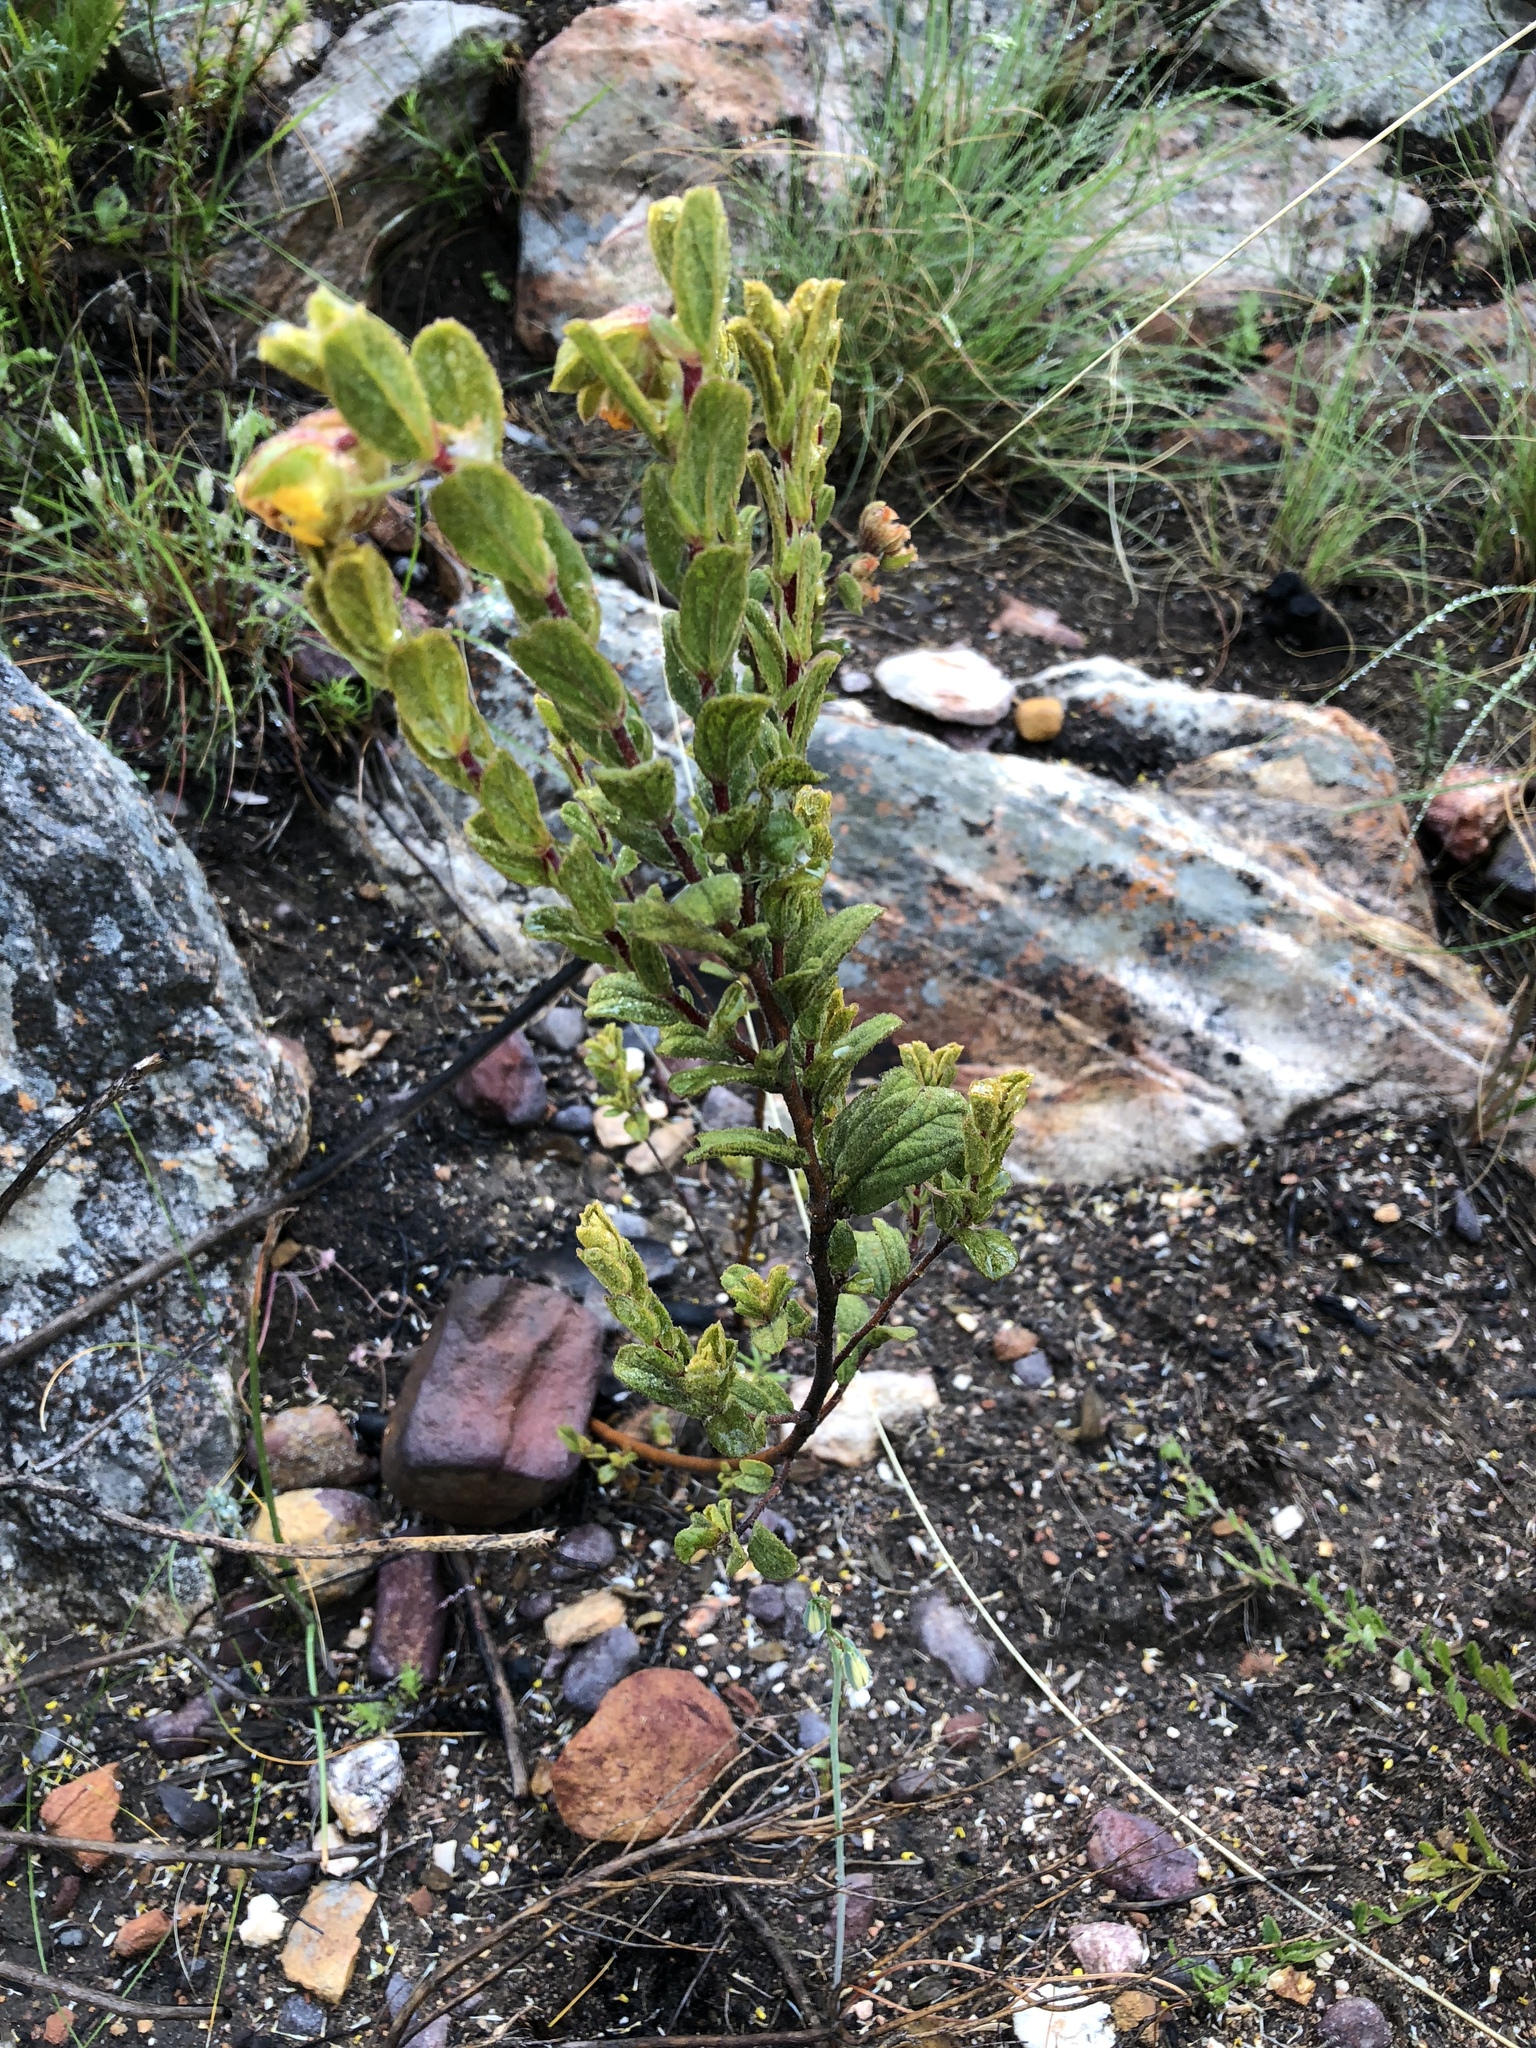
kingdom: Plantae
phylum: Tracheophyta
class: Magnoliopsida
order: Malvales
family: Malvaceae
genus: Hermannia
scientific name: Hermannia salviifolia
